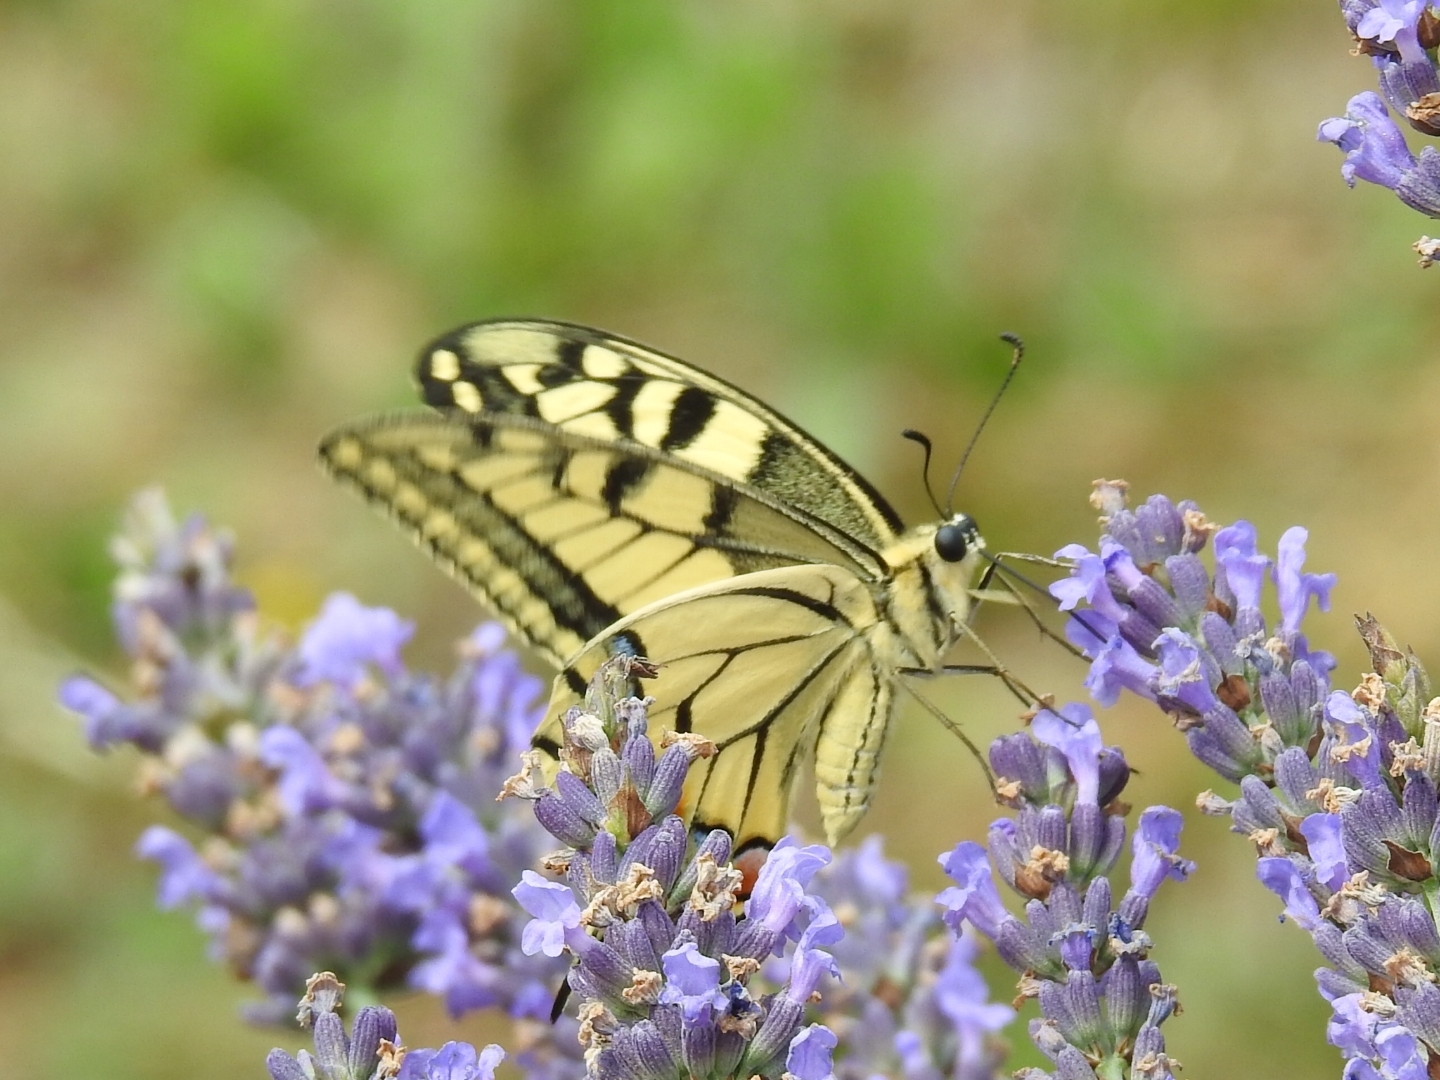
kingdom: Animalia
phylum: Arthropoda
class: Insecta
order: Lepidoptera
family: Papilionidae
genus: Papilio
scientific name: Papilio machaon
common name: Swallowtail
